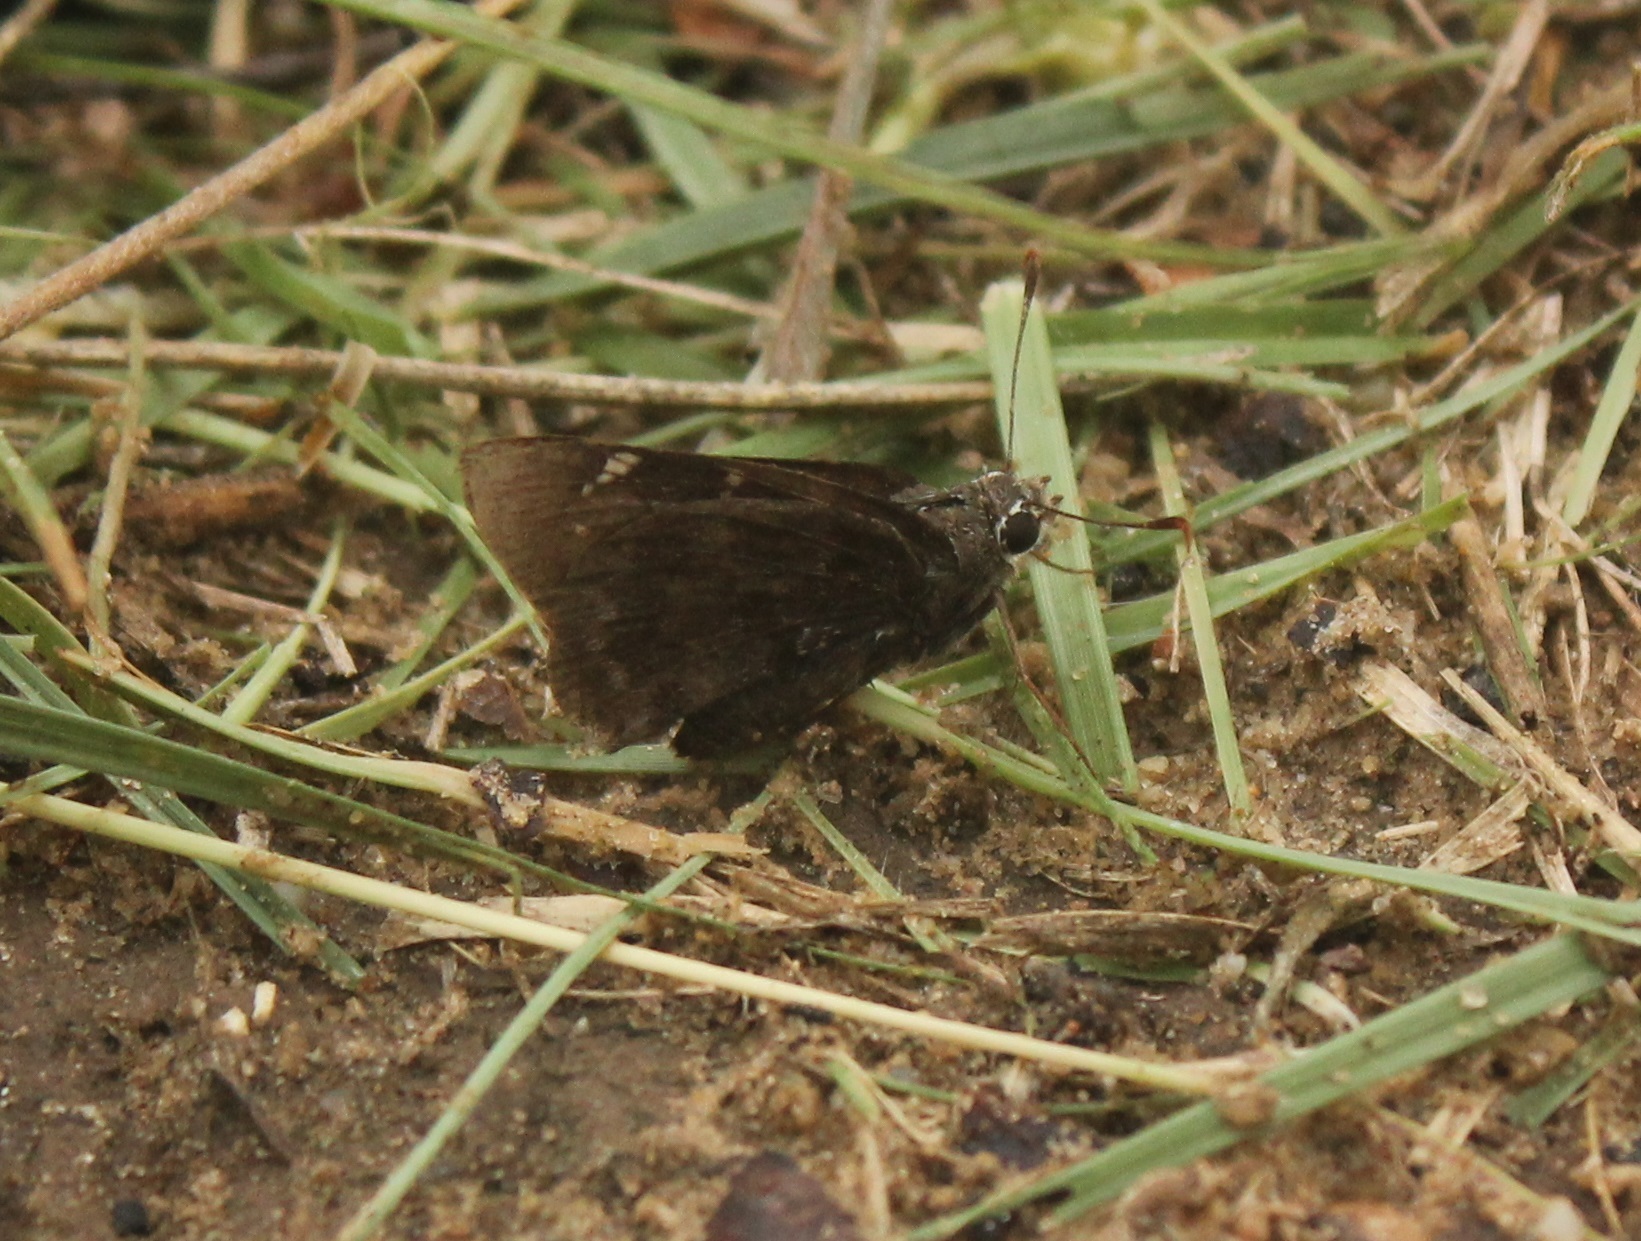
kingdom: Animalia
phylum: Arthropoda
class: Insecta
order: Lepidoptera
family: Hesperiidae
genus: Cogia
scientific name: Cogia hippalus
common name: Acacia skipper
